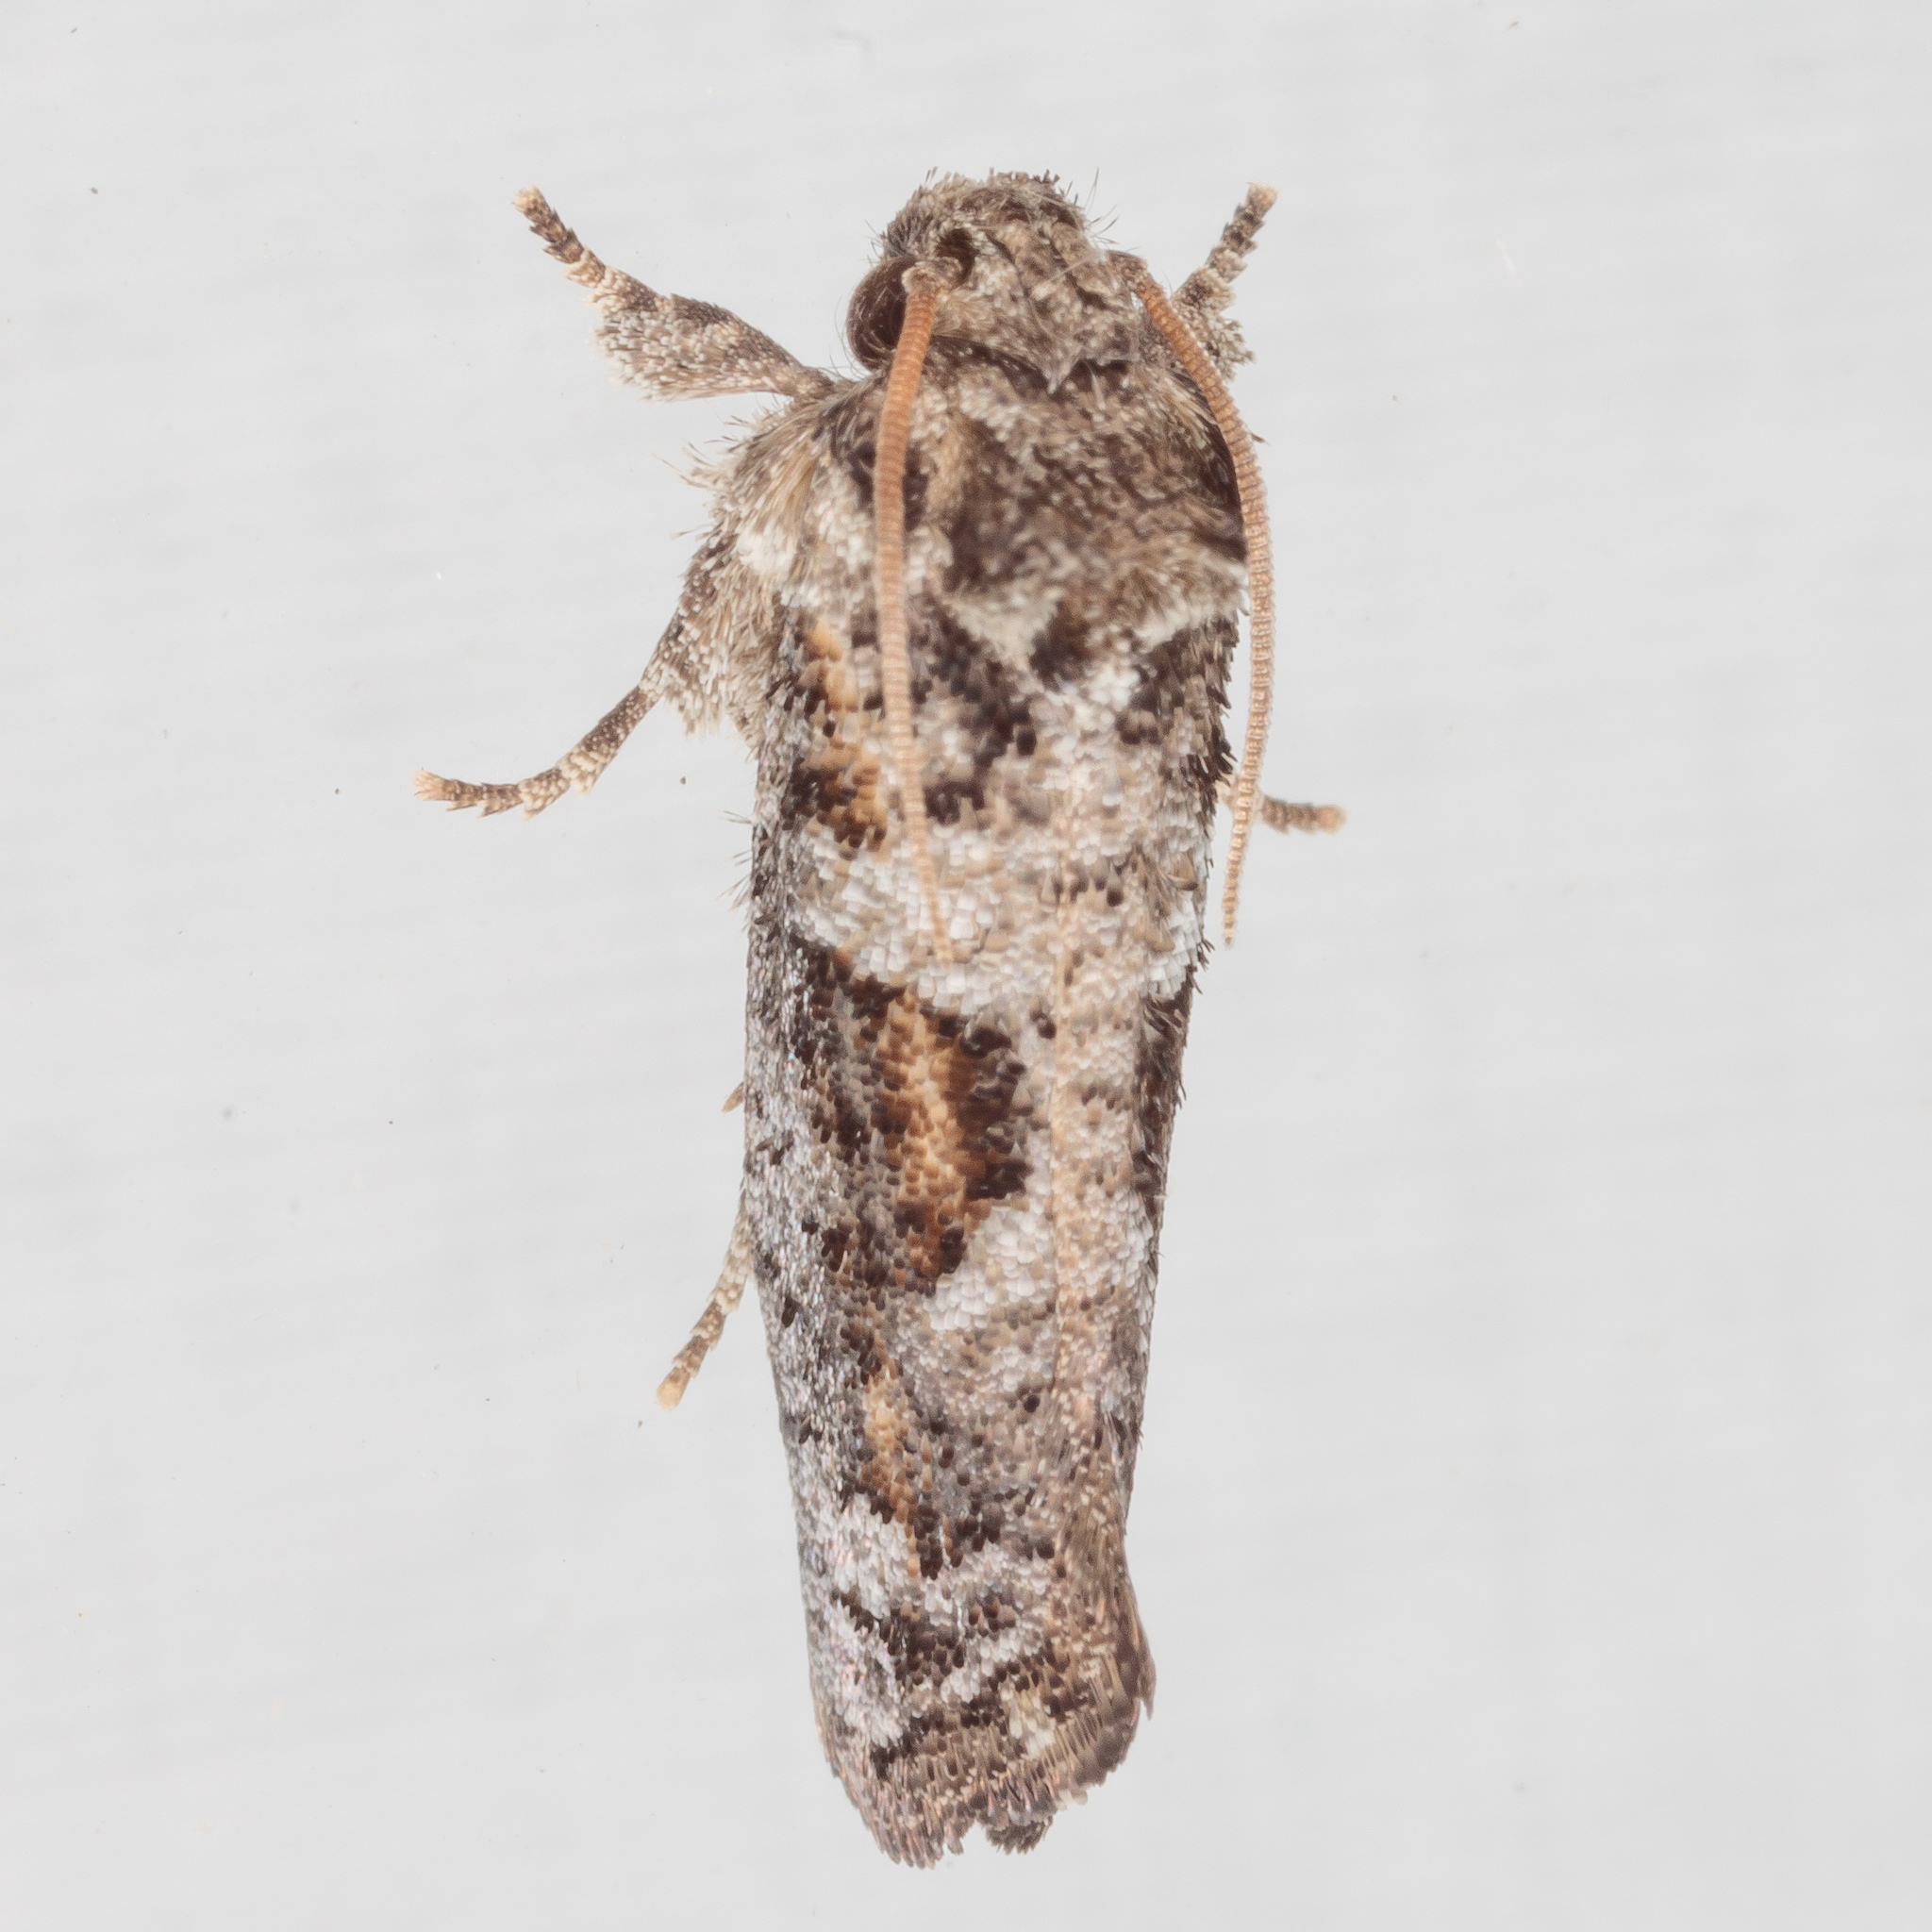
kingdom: Animalia
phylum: Arthropoda
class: Insecta
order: Lepidoptera
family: Tineidae
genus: Acrolophus
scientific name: Acrolophus piger
